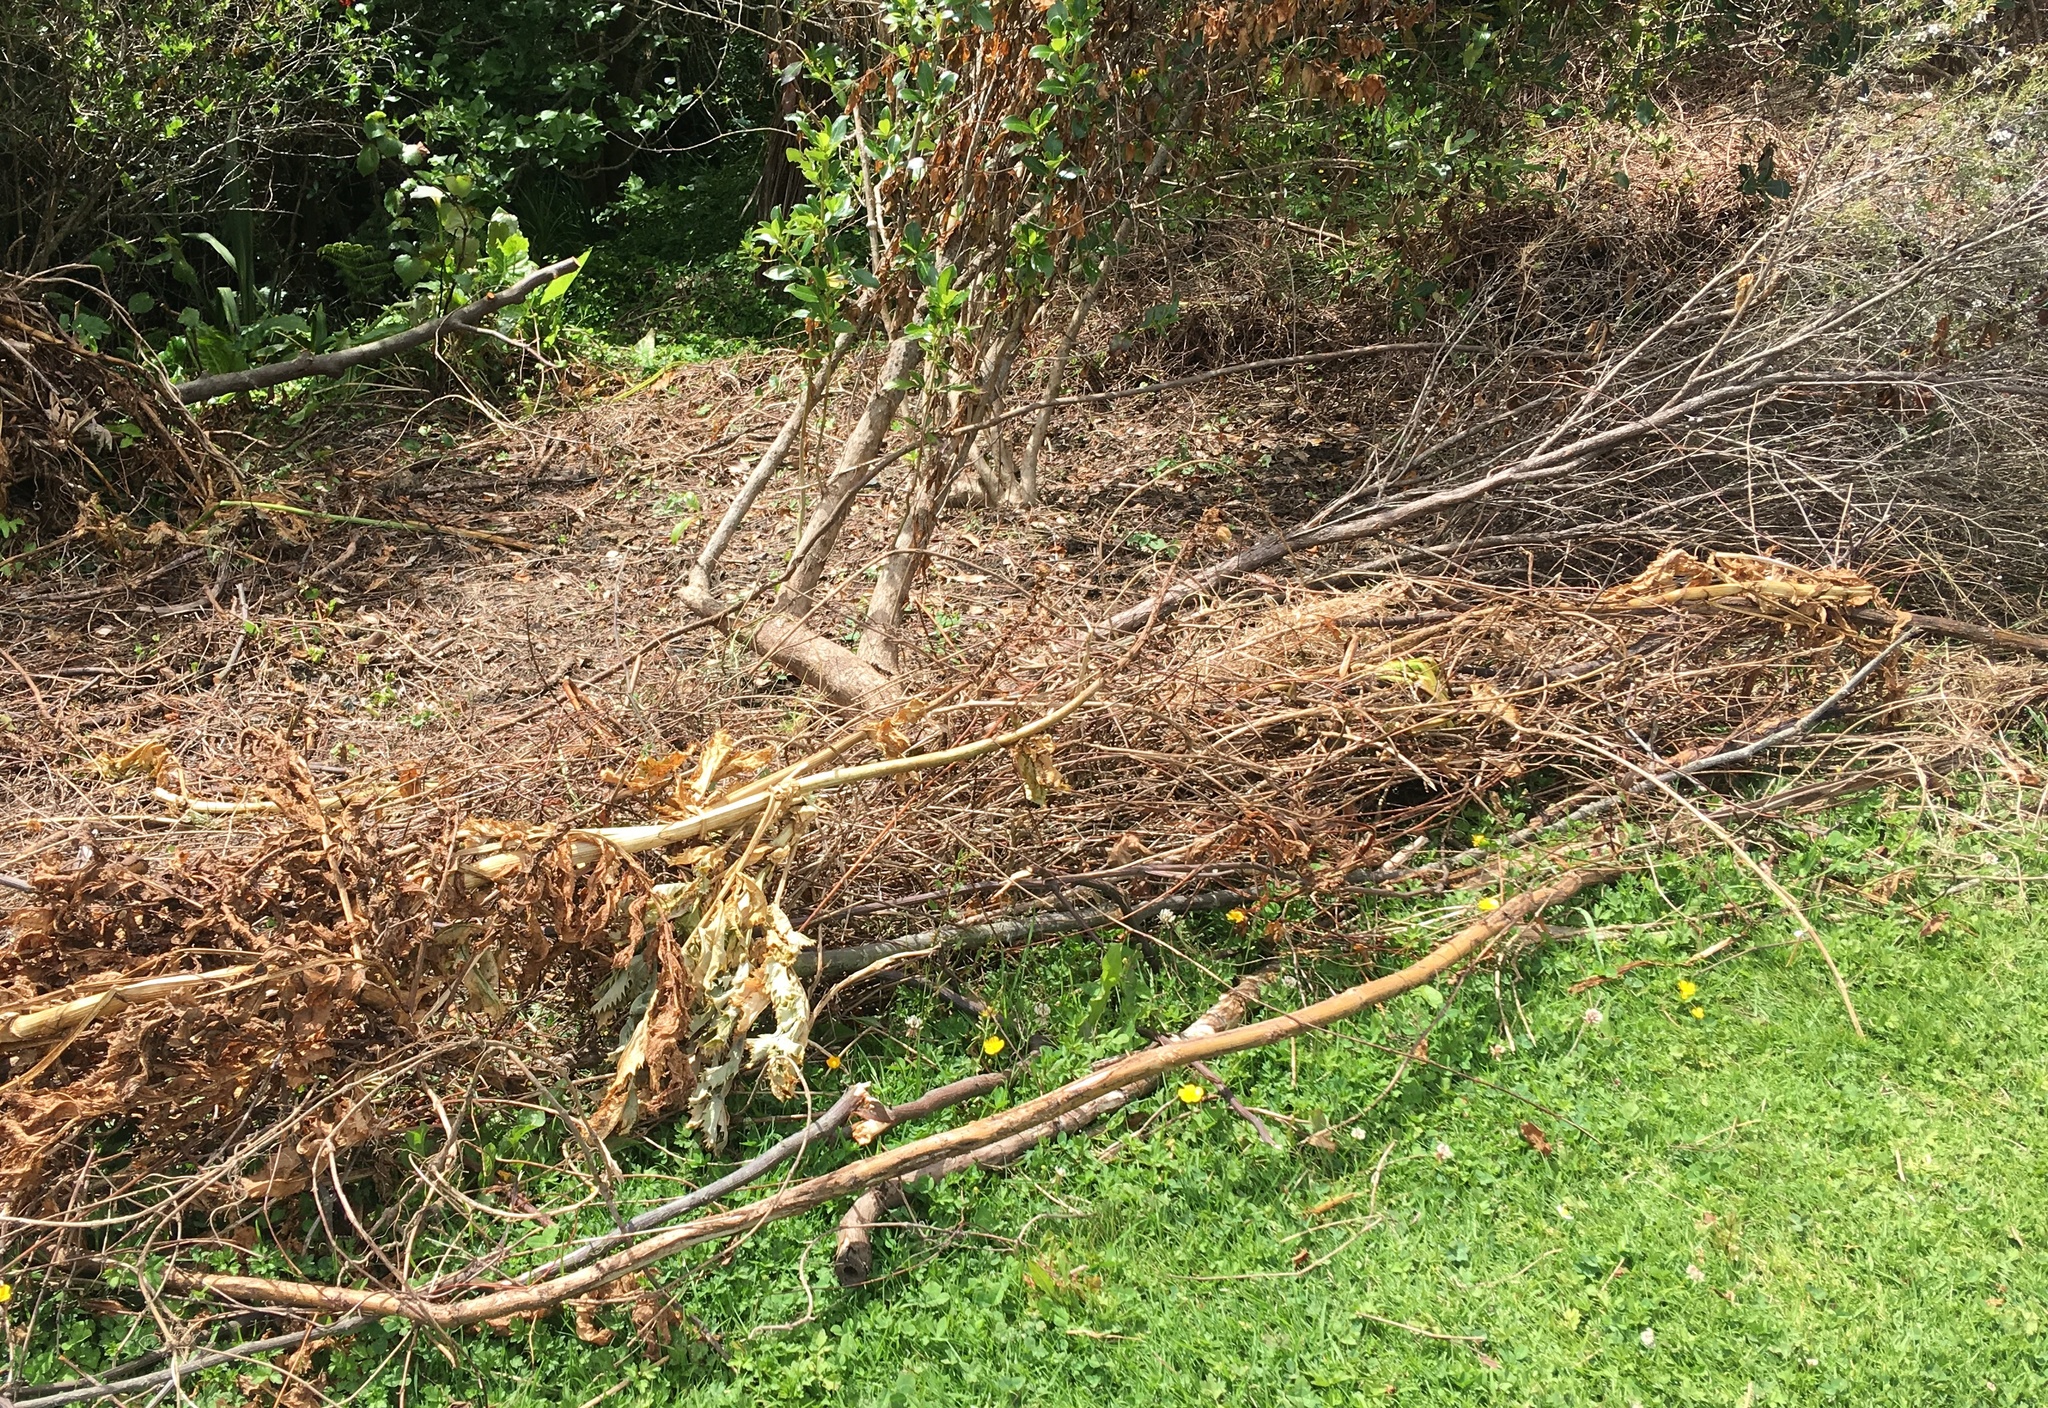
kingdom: Plantae
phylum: Tracheophyta
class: Magnoliopsida
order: Geraniales
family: Melianthaceae
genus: Melianthus
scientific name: Melianthus major
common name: Honey-flower
